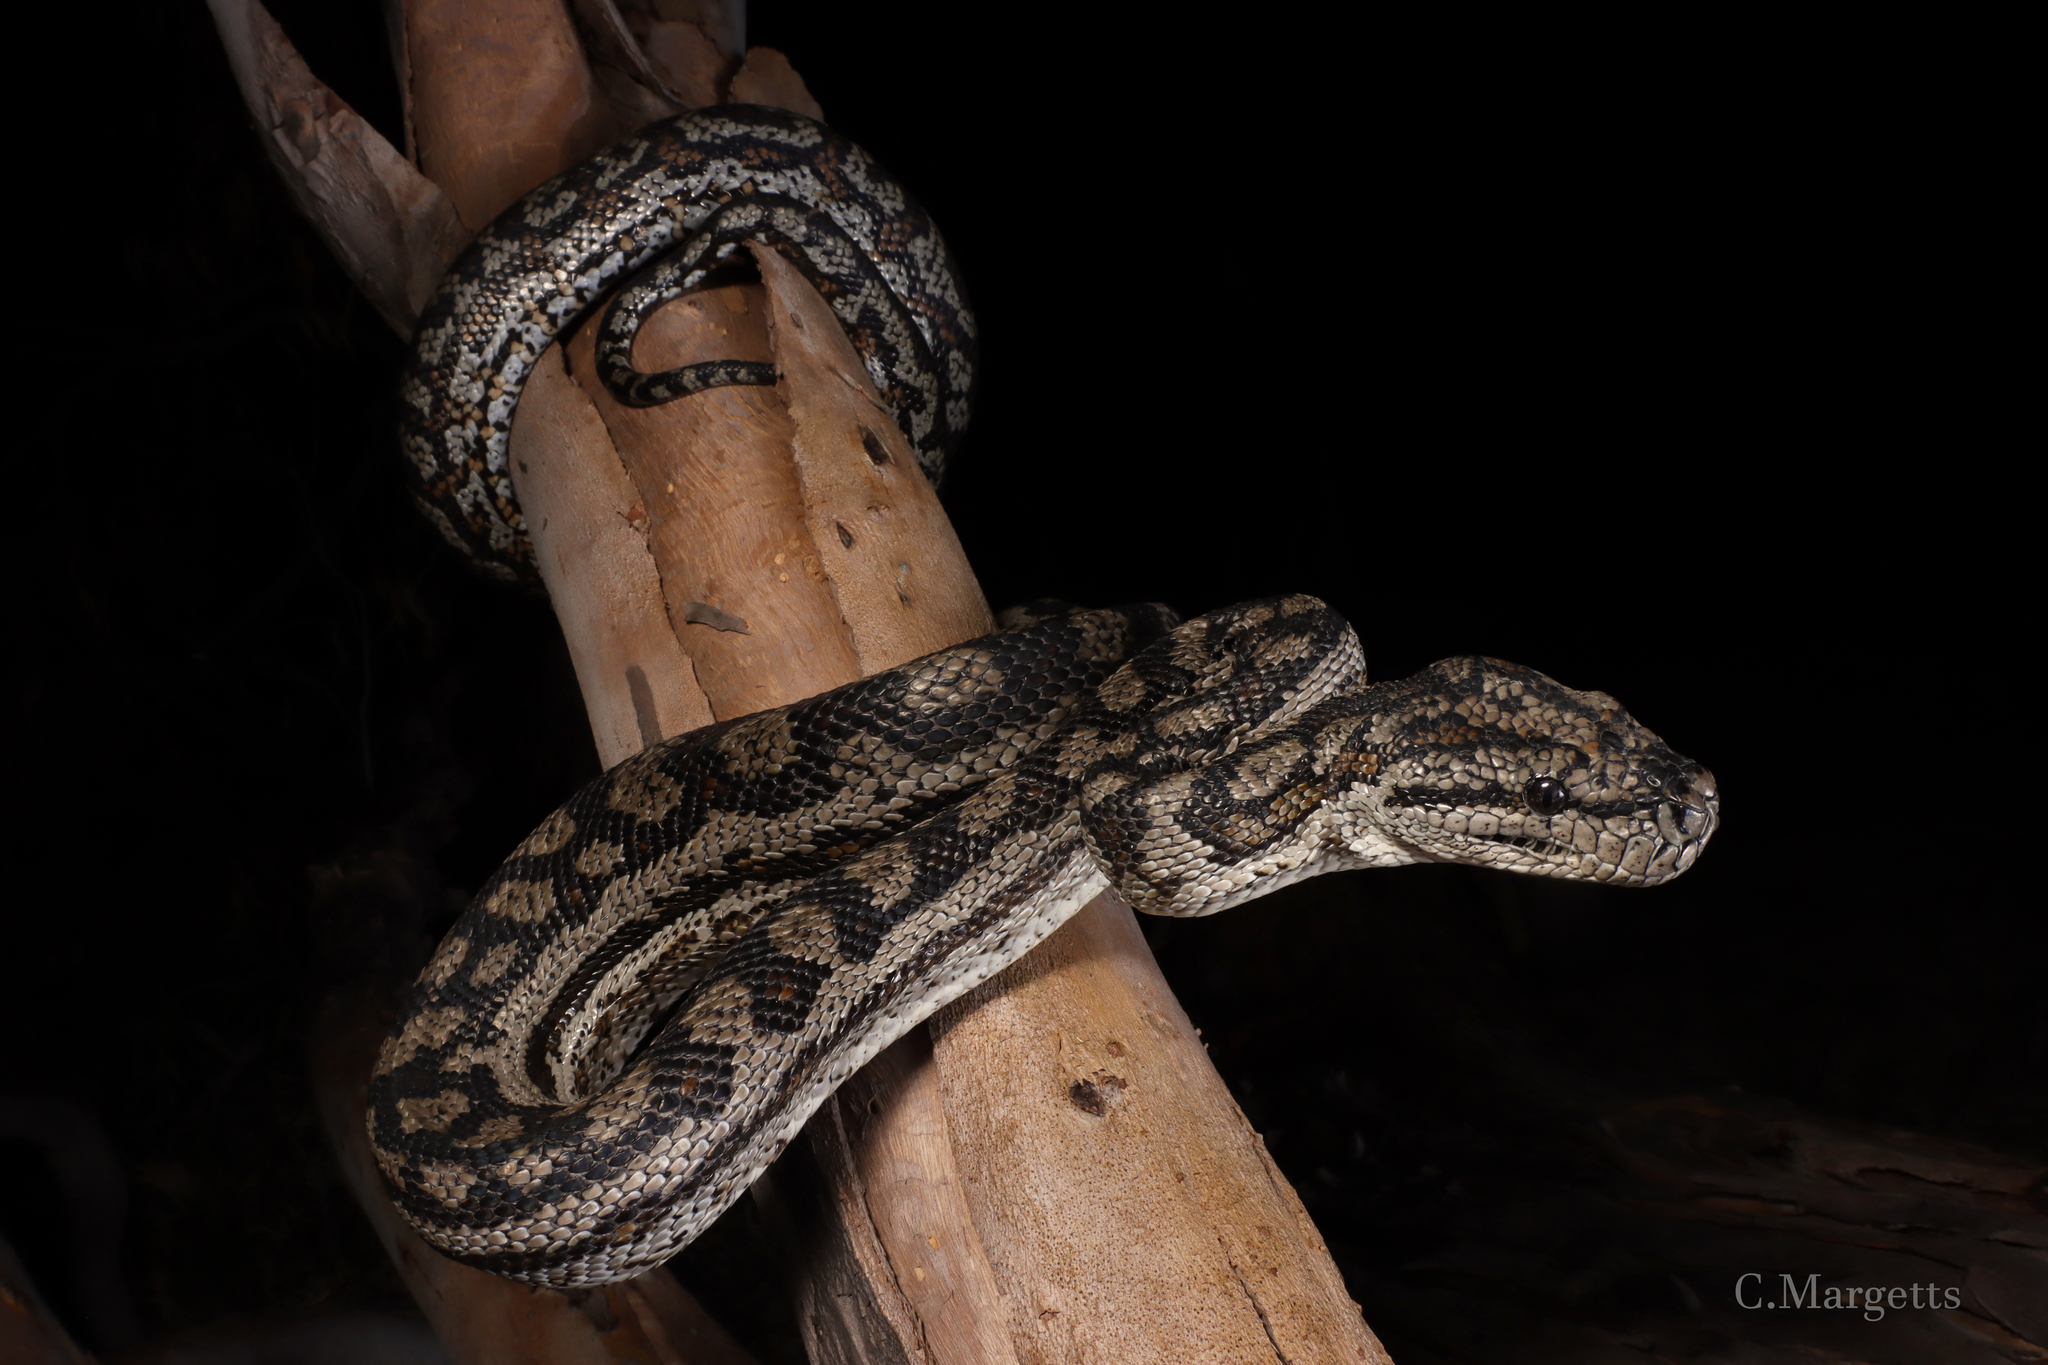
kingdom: Animalia
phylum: Chordata
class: Squamata
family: Pythonidae
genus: Morelia
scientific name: Morelia spilota
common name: Carpet python
